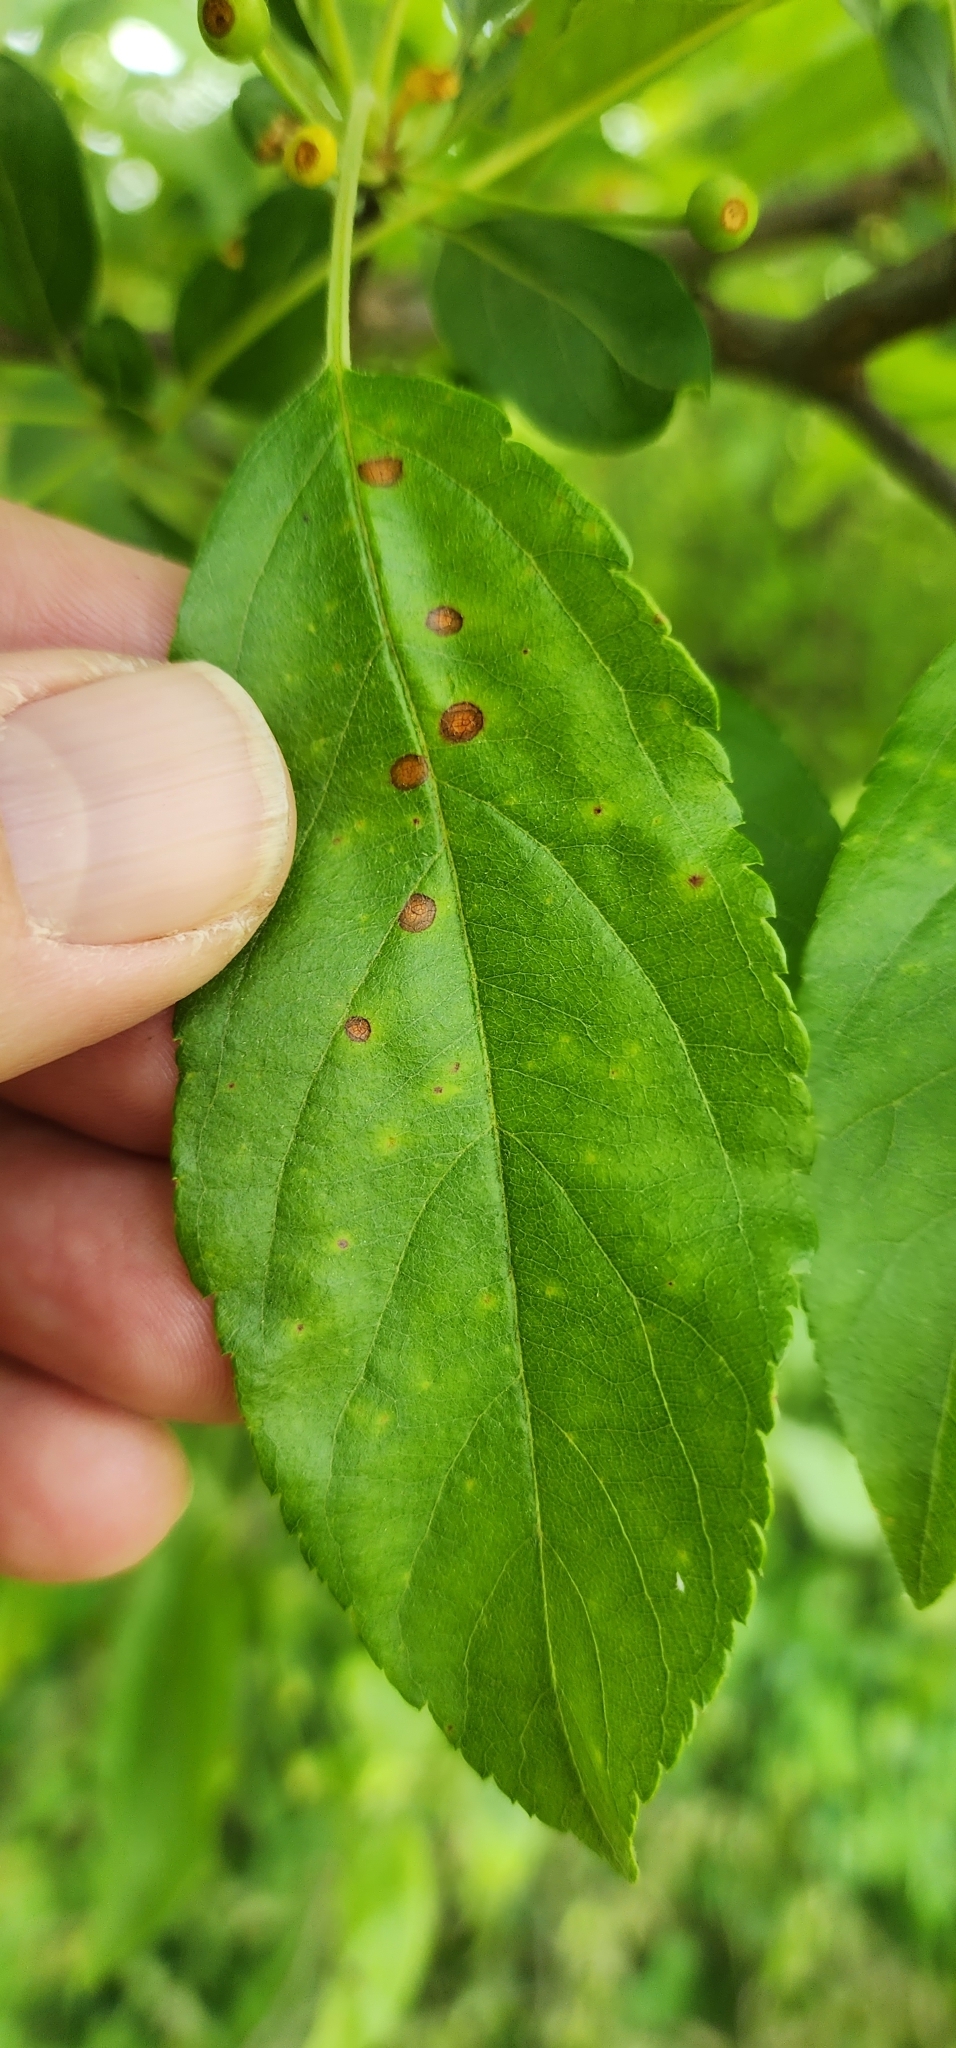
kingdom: Fungi
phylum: Ascomycota
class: Dothideomycetes
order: Mycosphaerellales
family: Mycosphaerellaceae
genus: Stigmina
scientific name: Stigmina carpophila
